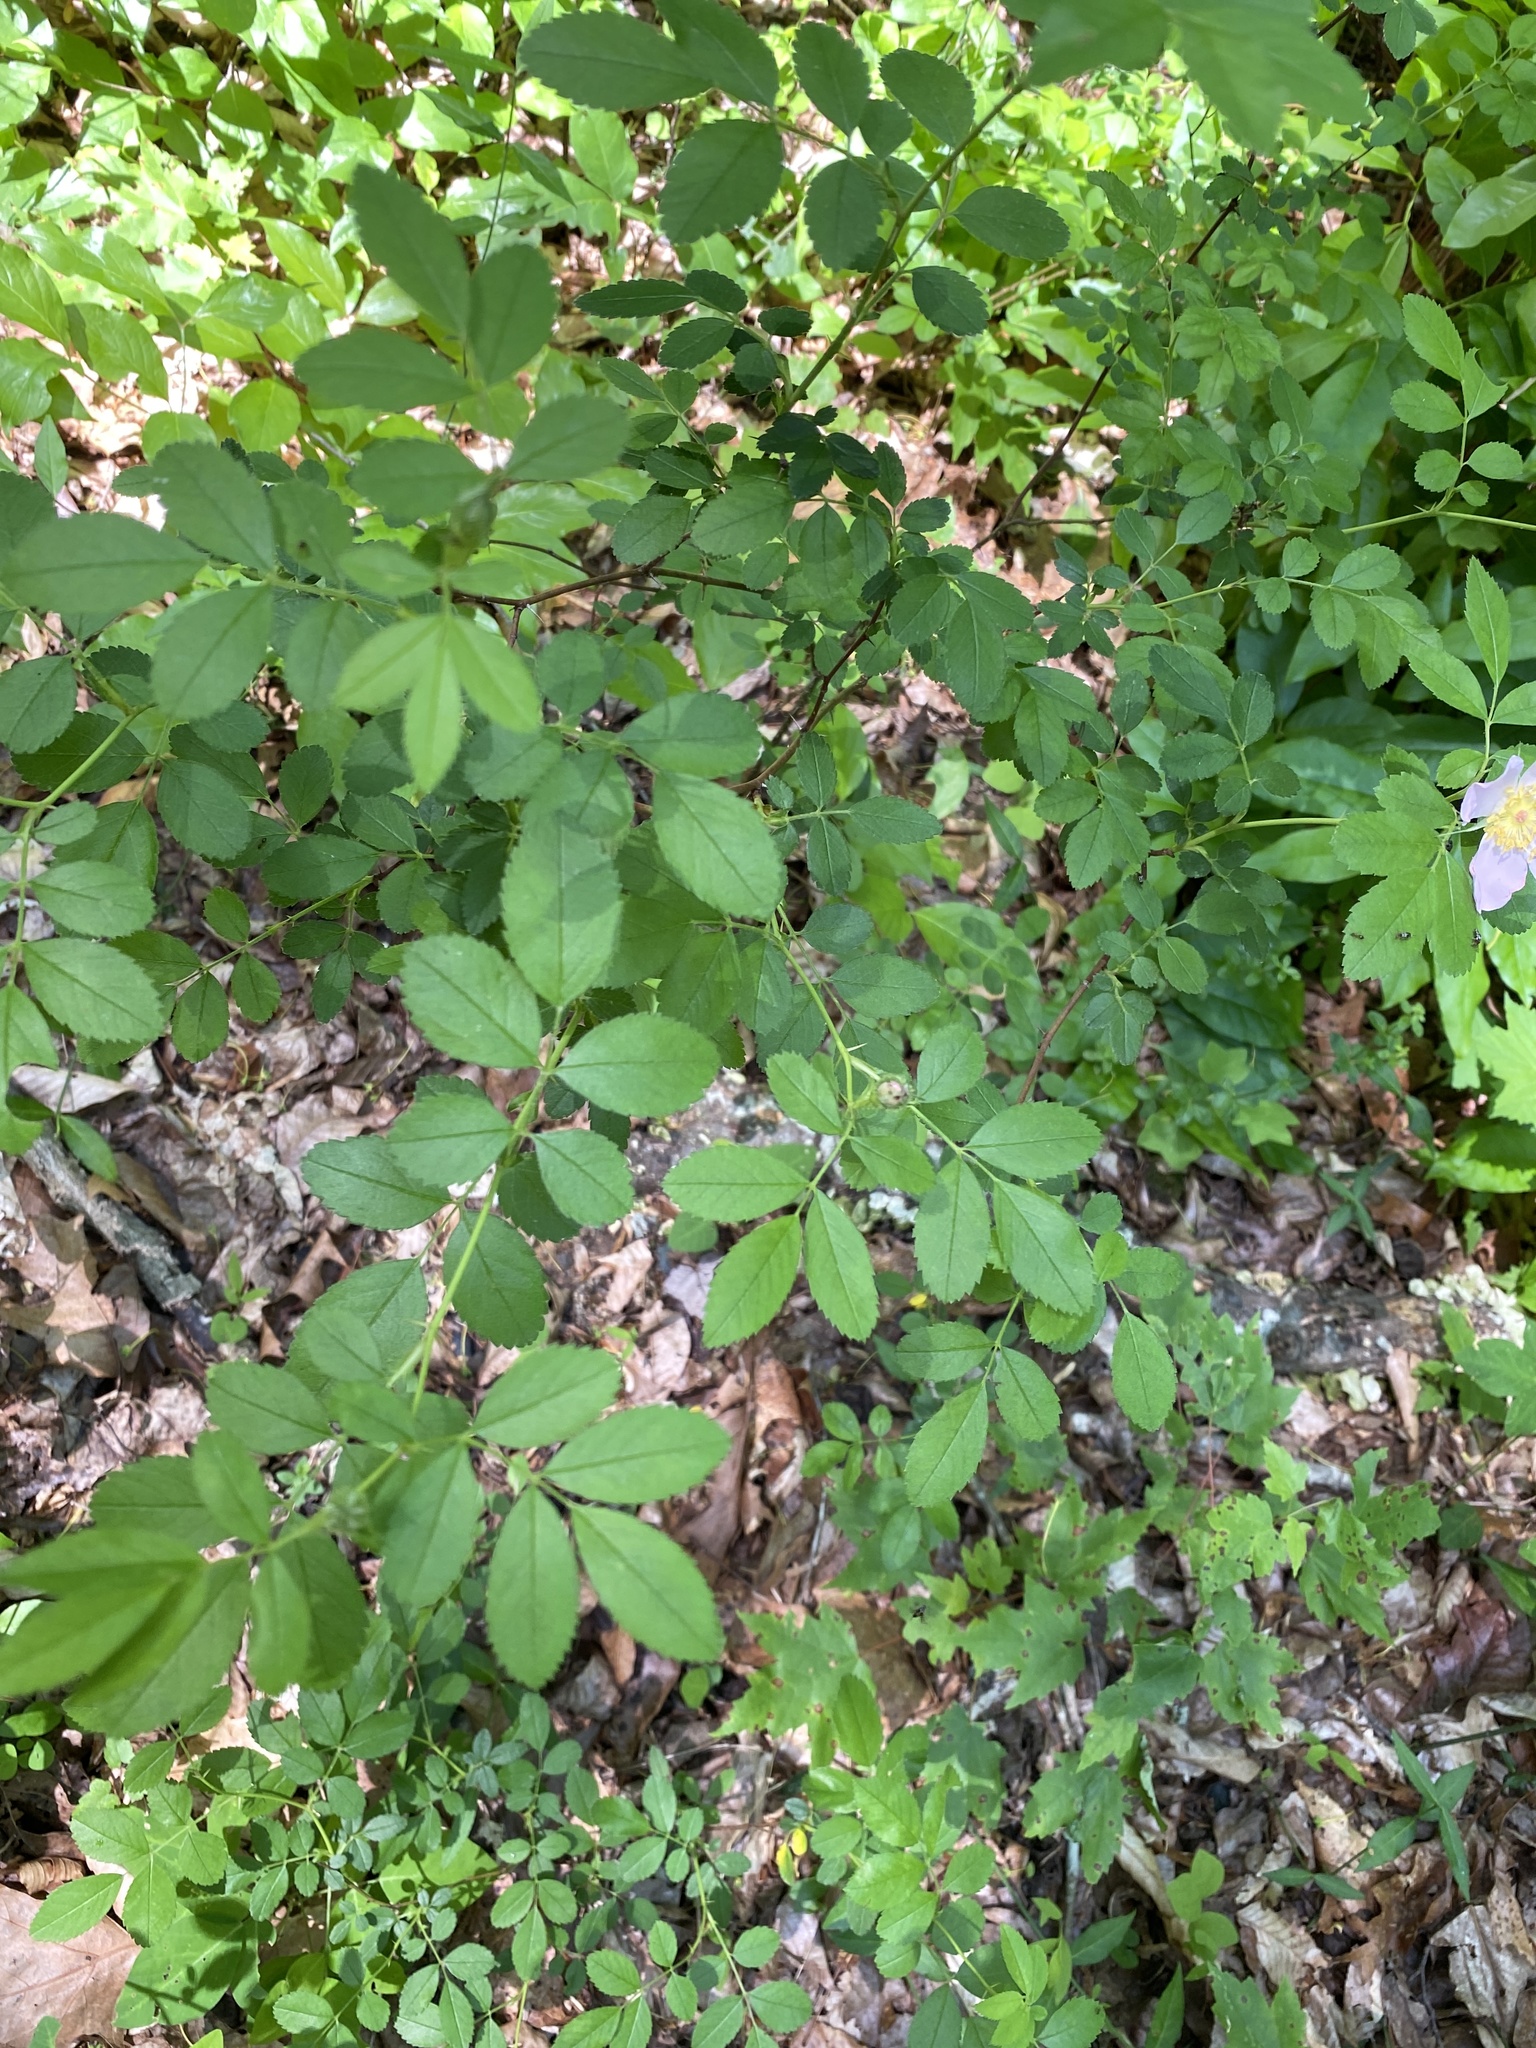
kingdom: Plantae
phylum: Tracheophyta
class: Magnoliopsida
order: Rosales
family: Rosaceae
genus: Rosa
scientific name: Rosa carolina
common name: Pasture rose
